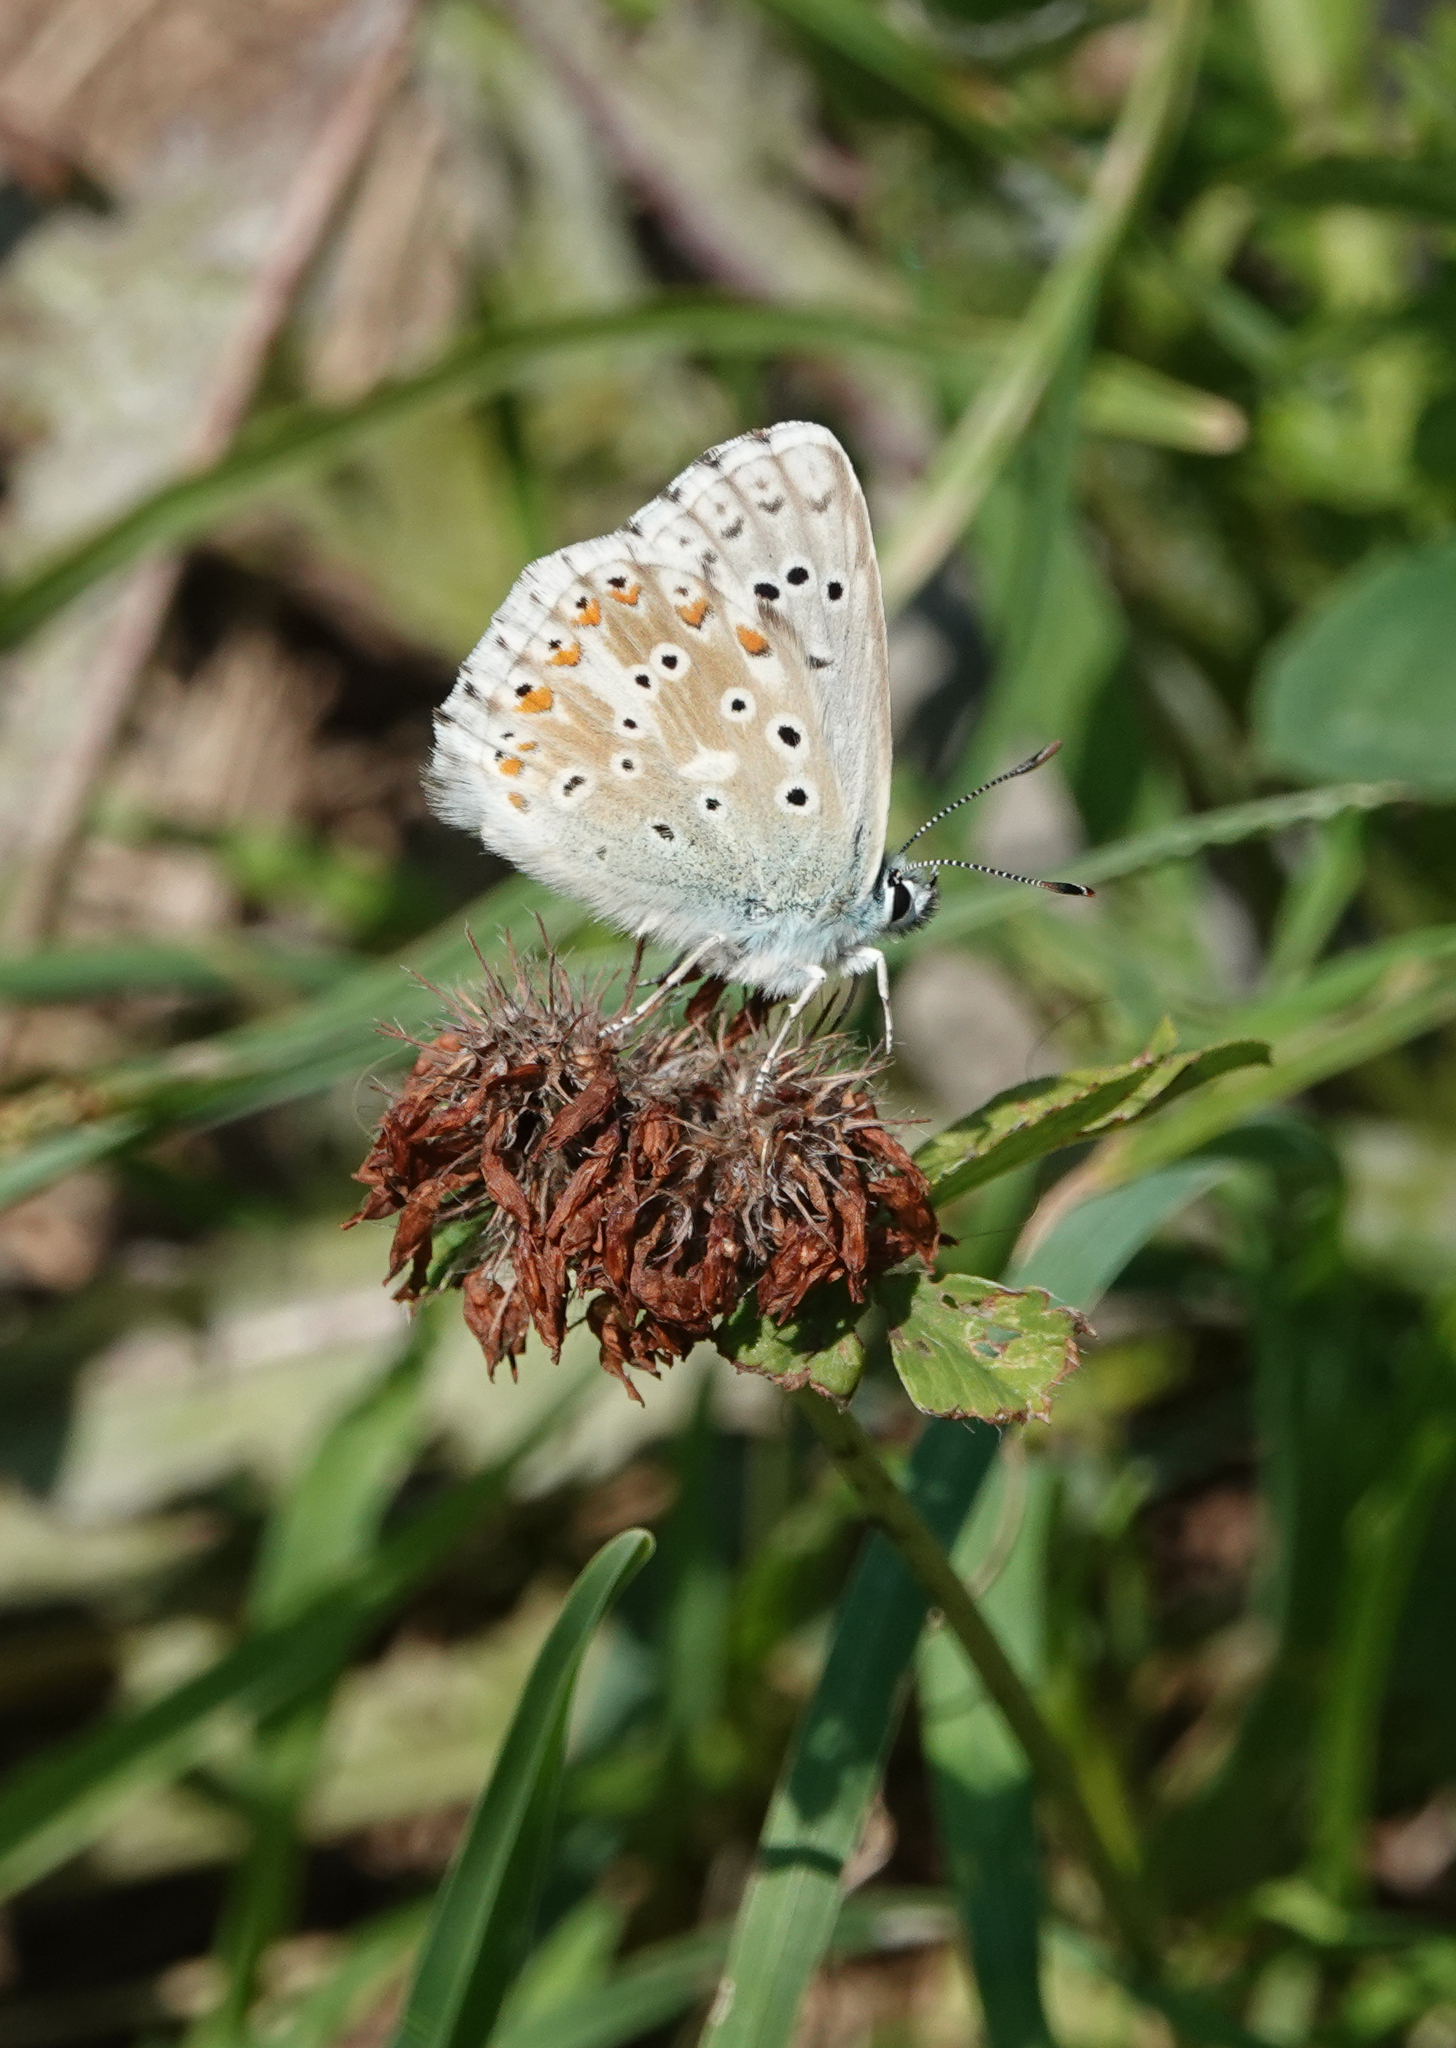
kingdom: Animalia
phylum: Arthropoda
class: Insecta
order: Lepidoptera
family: Lycaenidae
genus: Lysandra
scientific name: Lysandra coridon
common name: Chalkhill blue
